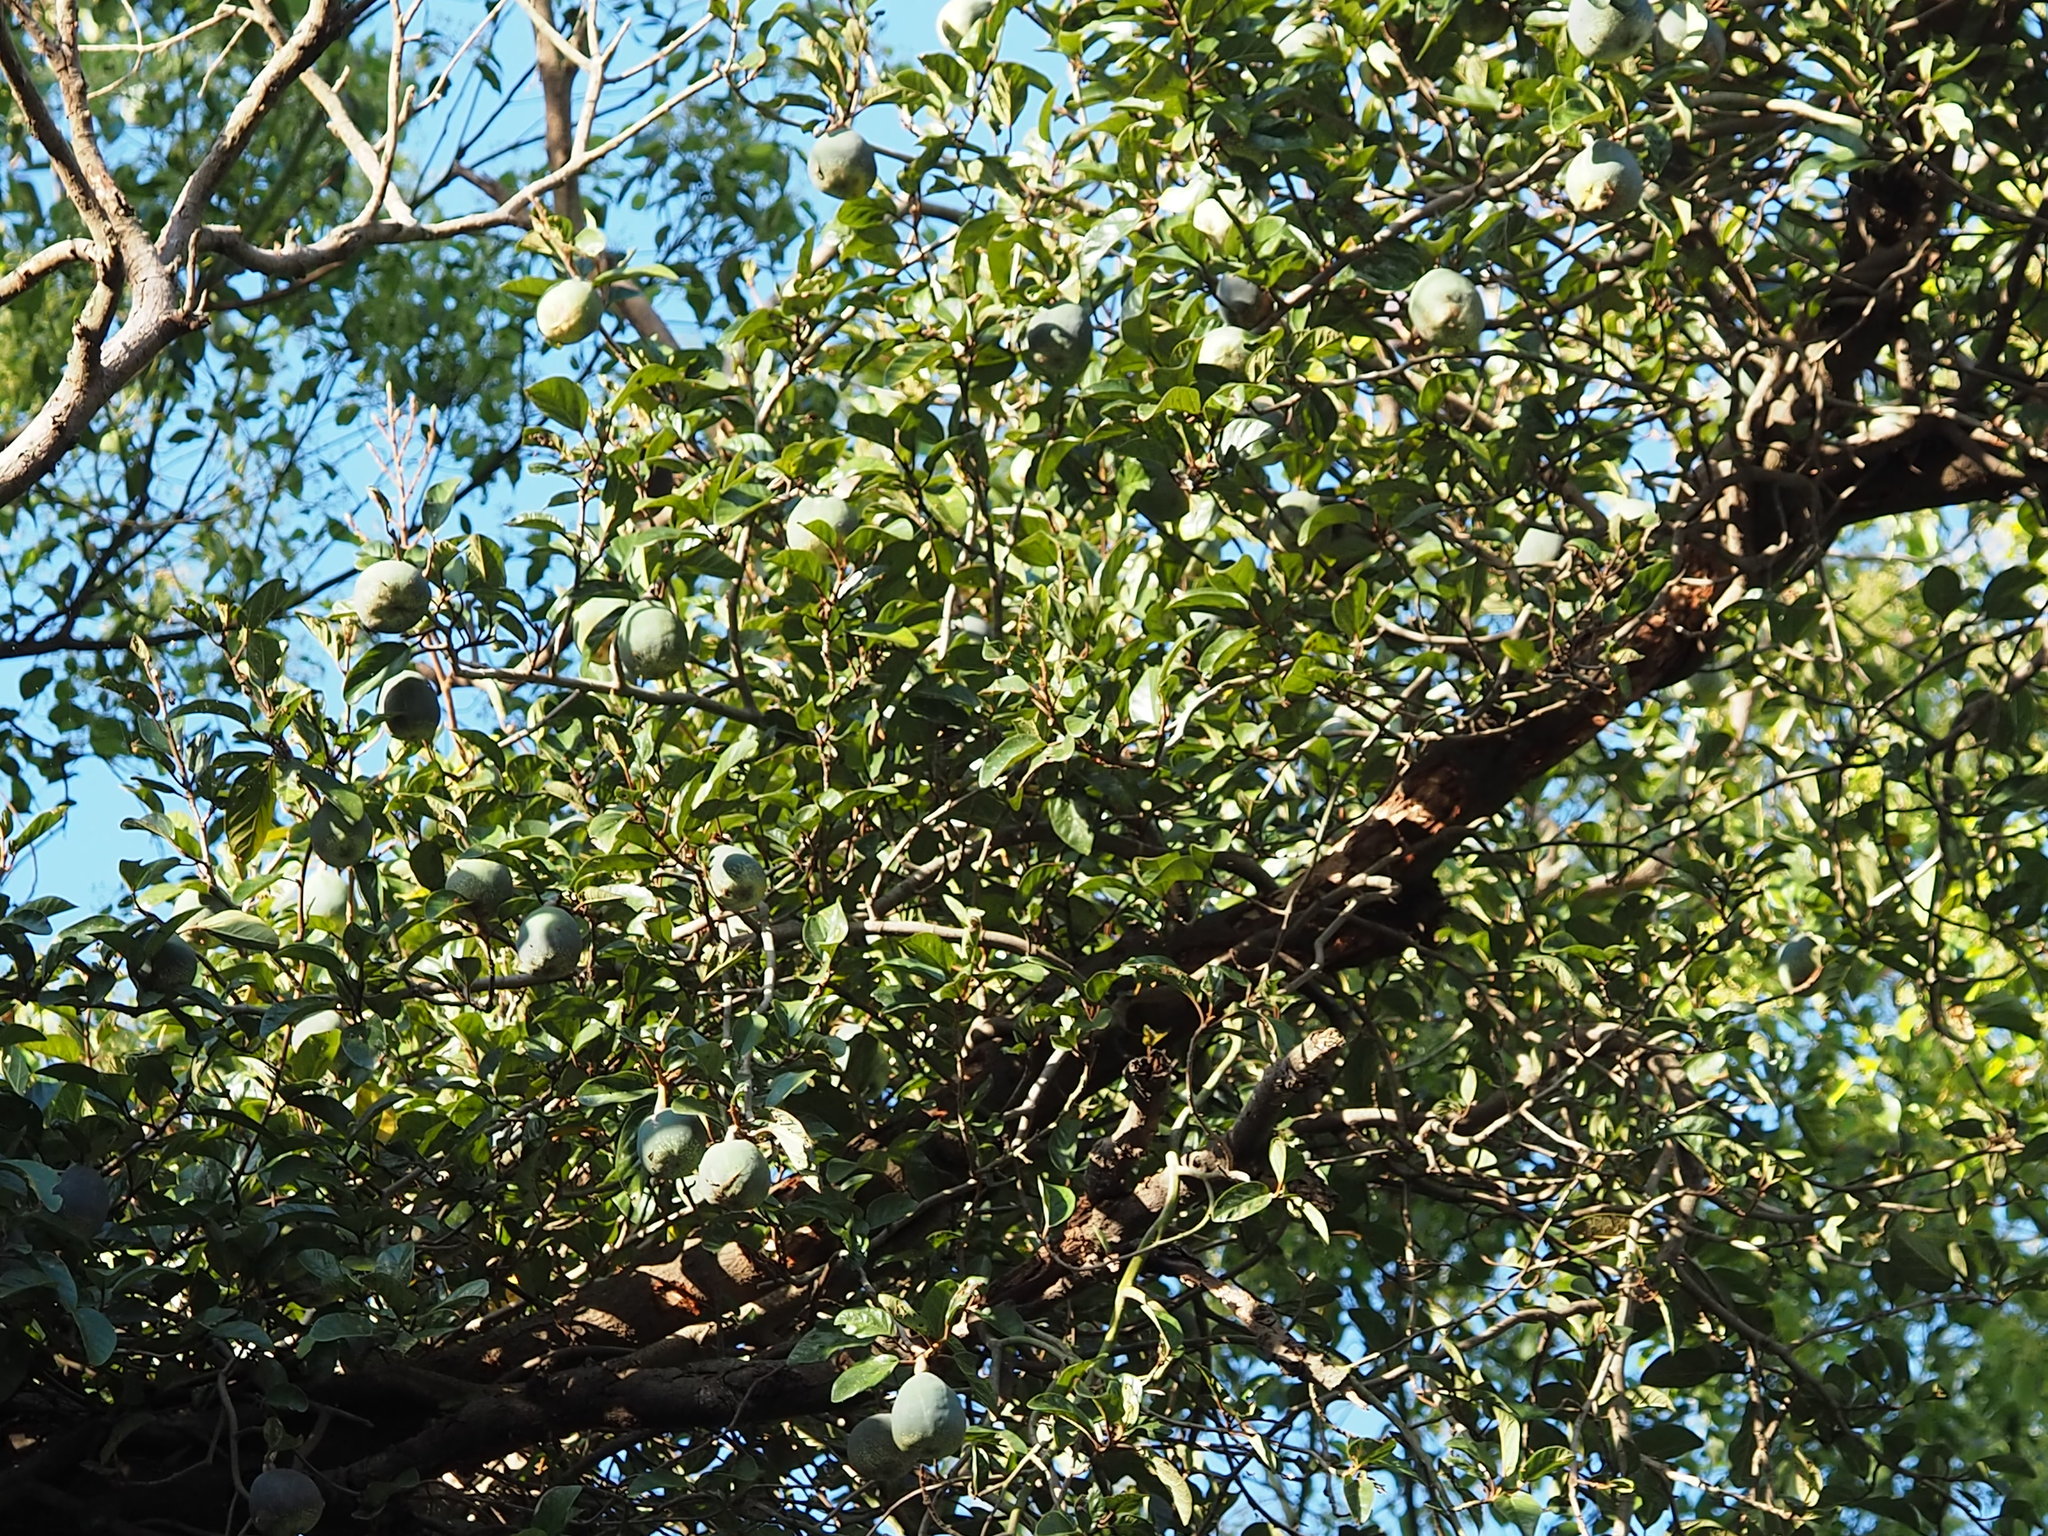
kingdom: Plantae
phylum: Tracheophyta
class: Magnoliopsida
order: Rosales
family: Moraceae
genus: Ficus
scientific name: Ficus pumila
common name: Climbingfig
